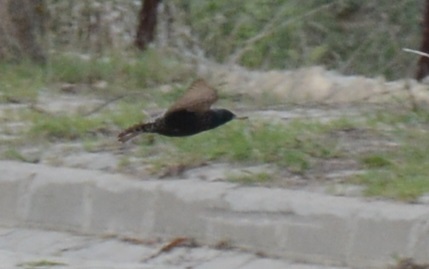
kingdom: Animalia
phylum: Chordata
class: Aves
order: Passeriformes
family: Sturnidae
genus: Sturnus
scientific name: Sturnus vulgaris
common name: Common starling
